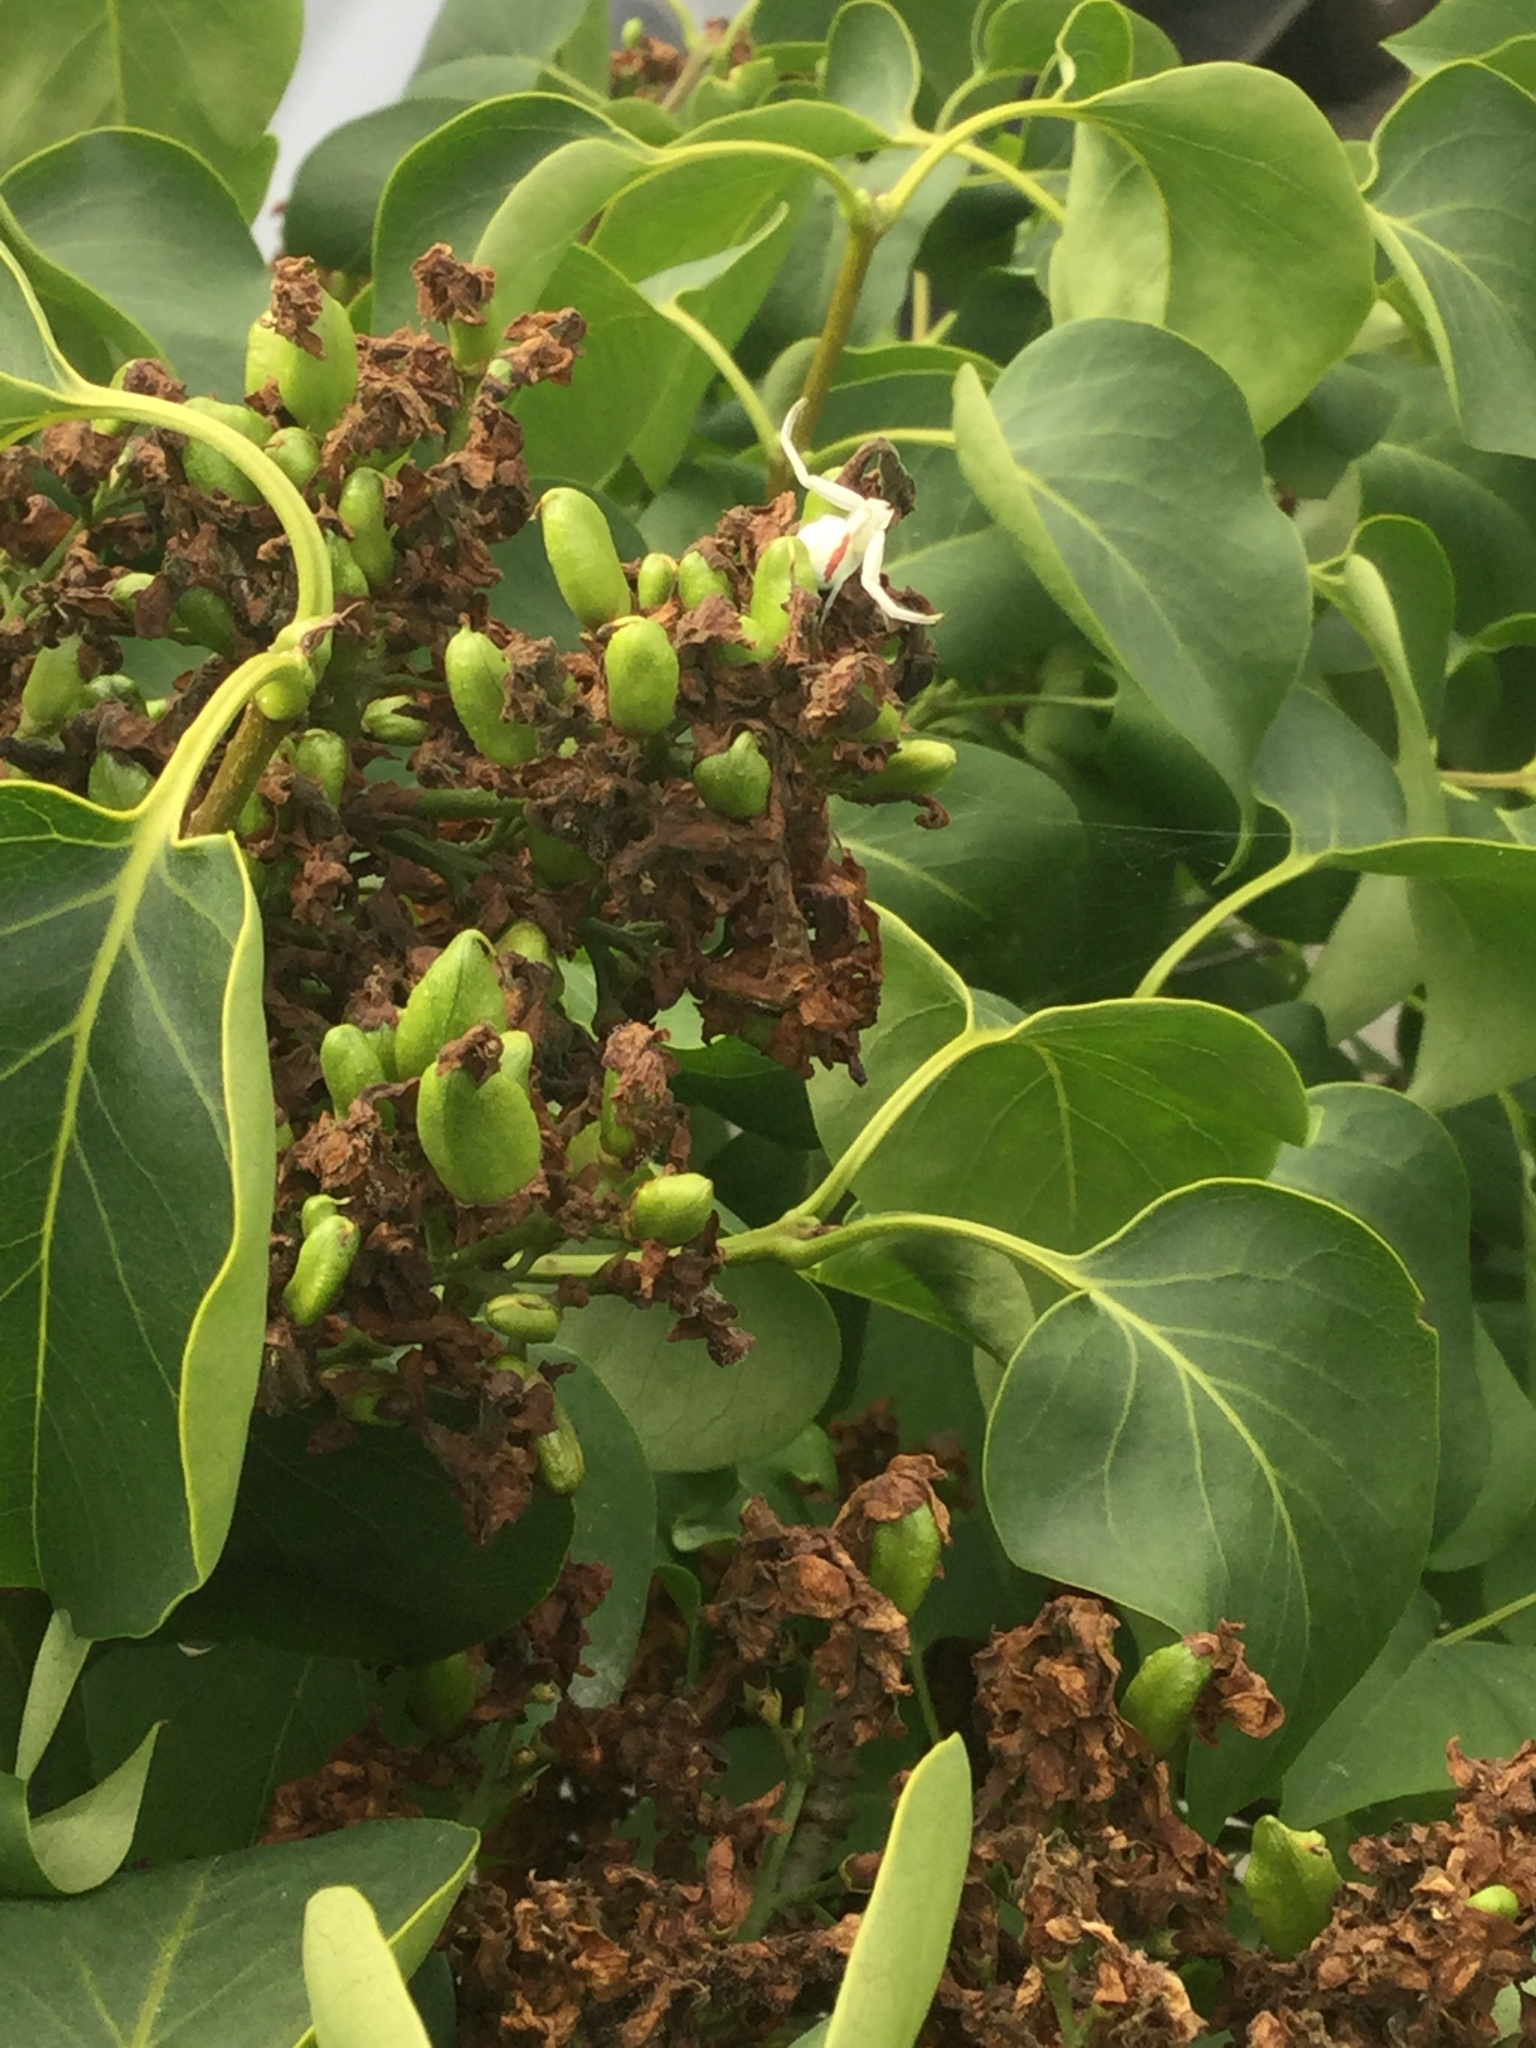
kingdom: Animalia
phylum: Arthropoda
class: Arachnida
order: Araneae
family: Thomisidae
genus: Misumena
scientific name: Misumena vatia
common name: Goldenrod crab spider
